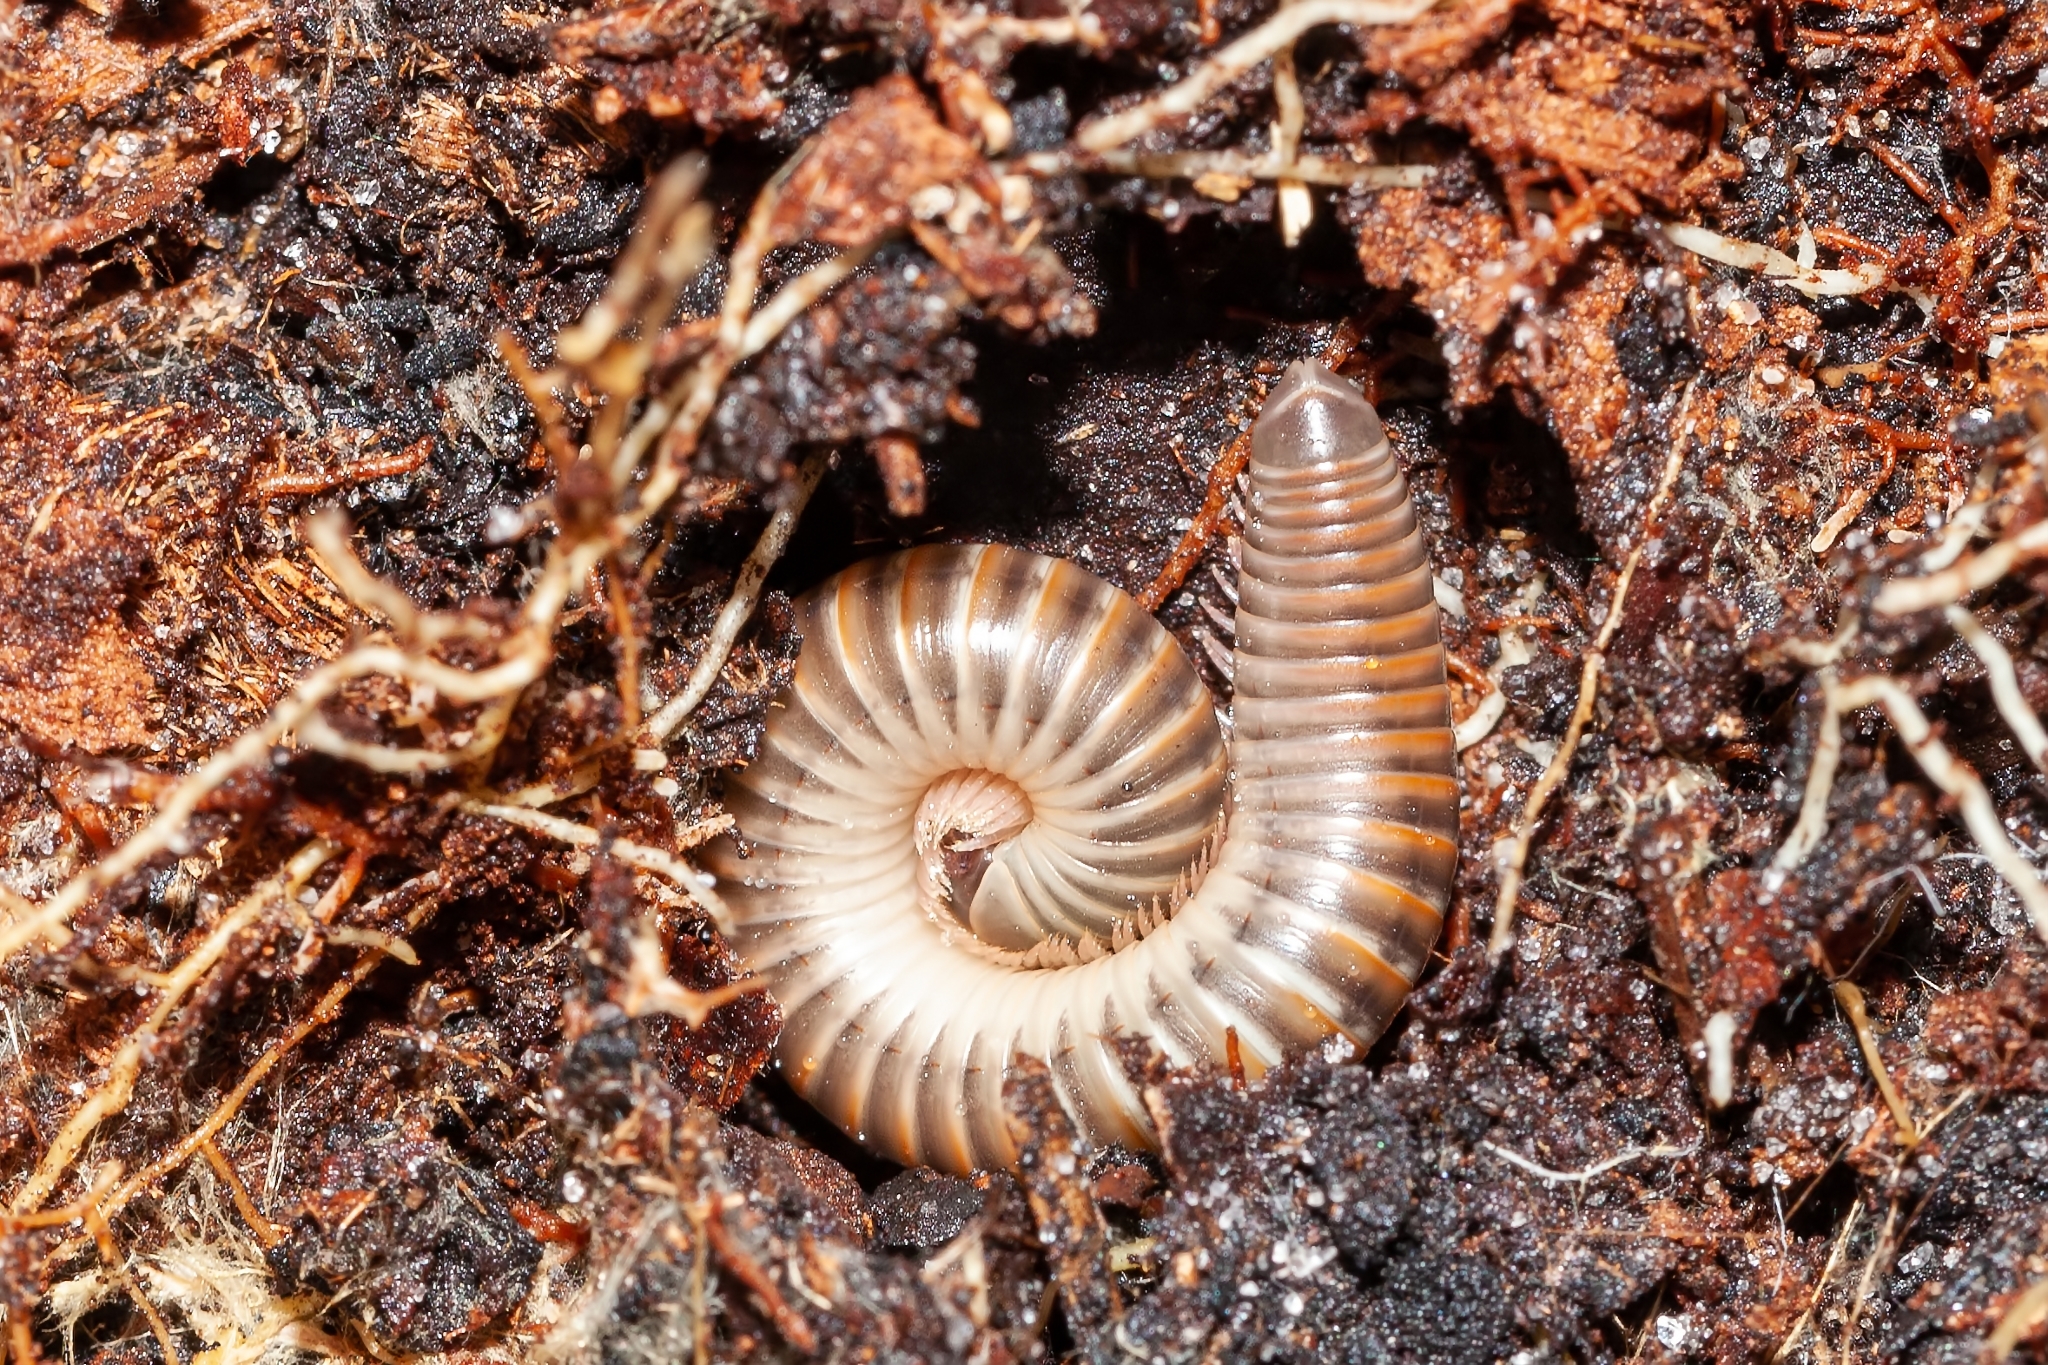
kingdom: Animalia
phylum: Arthropoda
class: Diplopoda
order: Spirobolida
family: Spirobolidae
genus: Chicobolus
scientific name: Chicobolus spinigerus
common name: Florida ivory millipede
